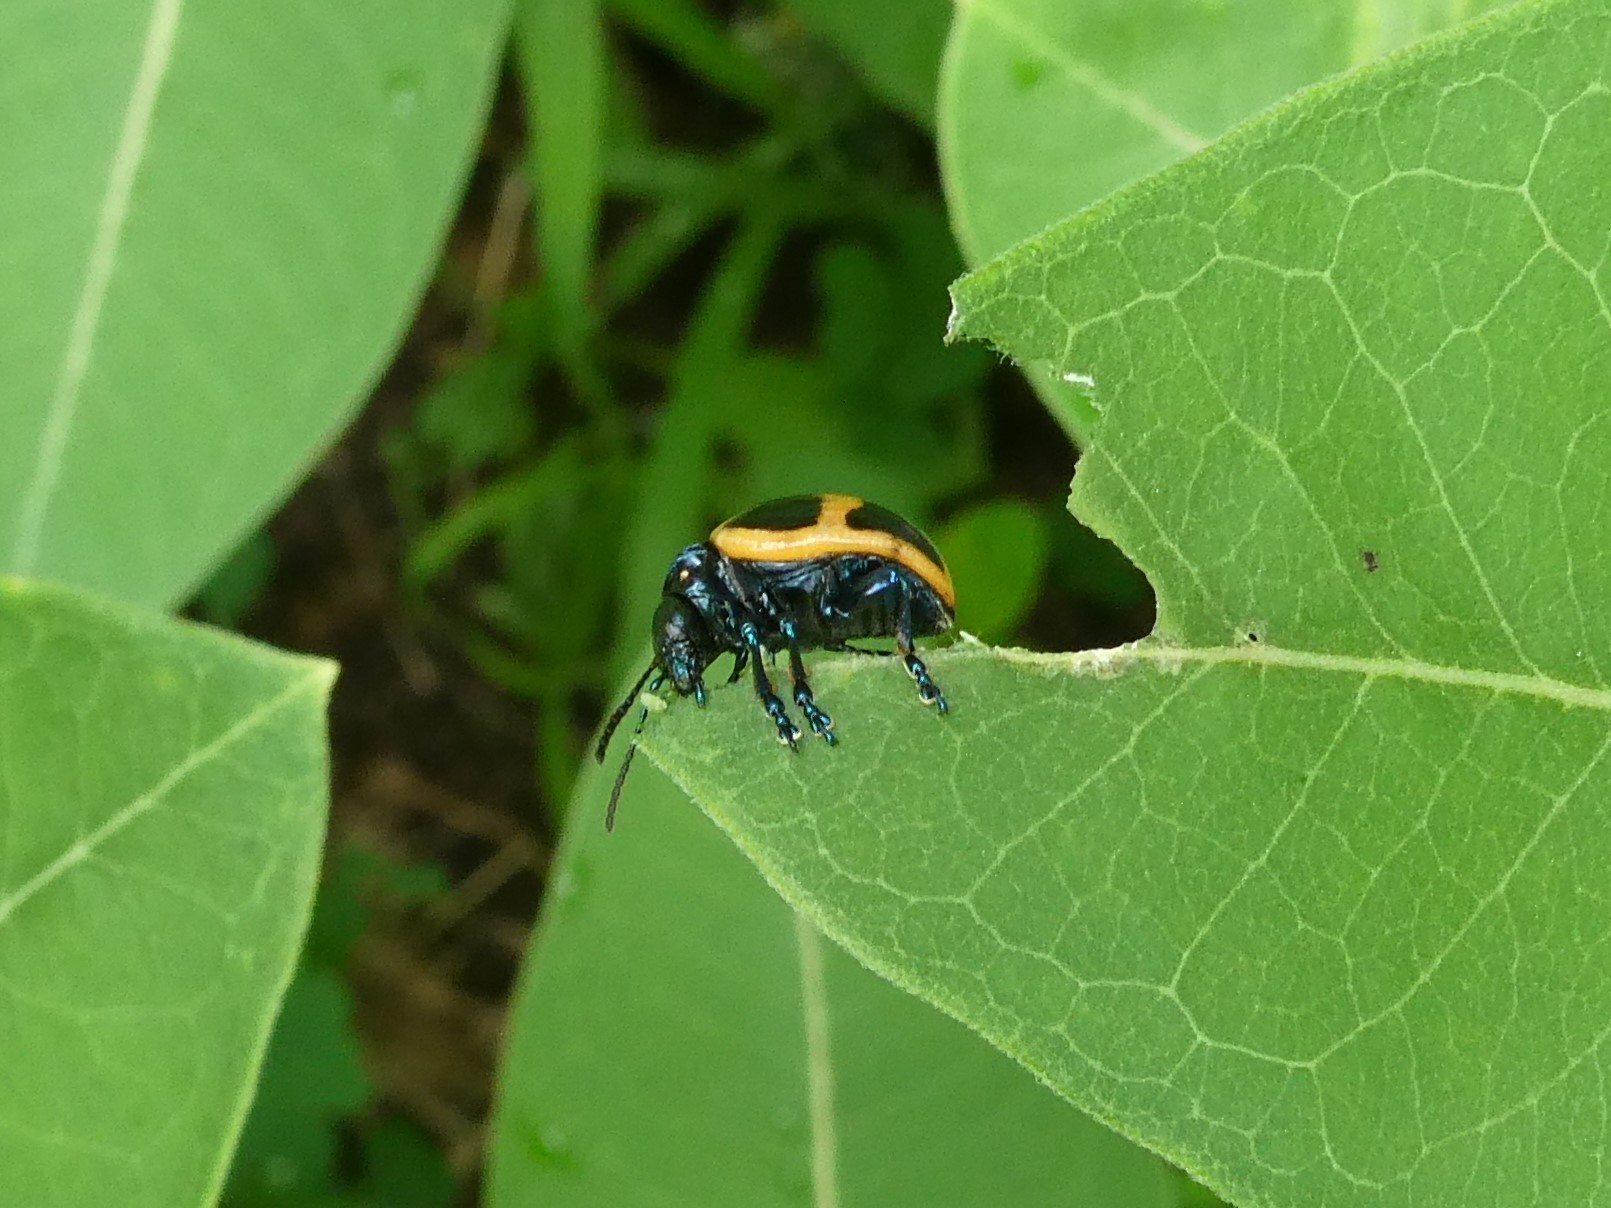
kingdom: Animalia
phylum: Arthropoda
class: Insecta
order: Coleoptera
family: Chrysomelidae
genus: Labidomera
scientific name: Labidomera clivicollis
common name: Swamp milkweed leaf beetle
